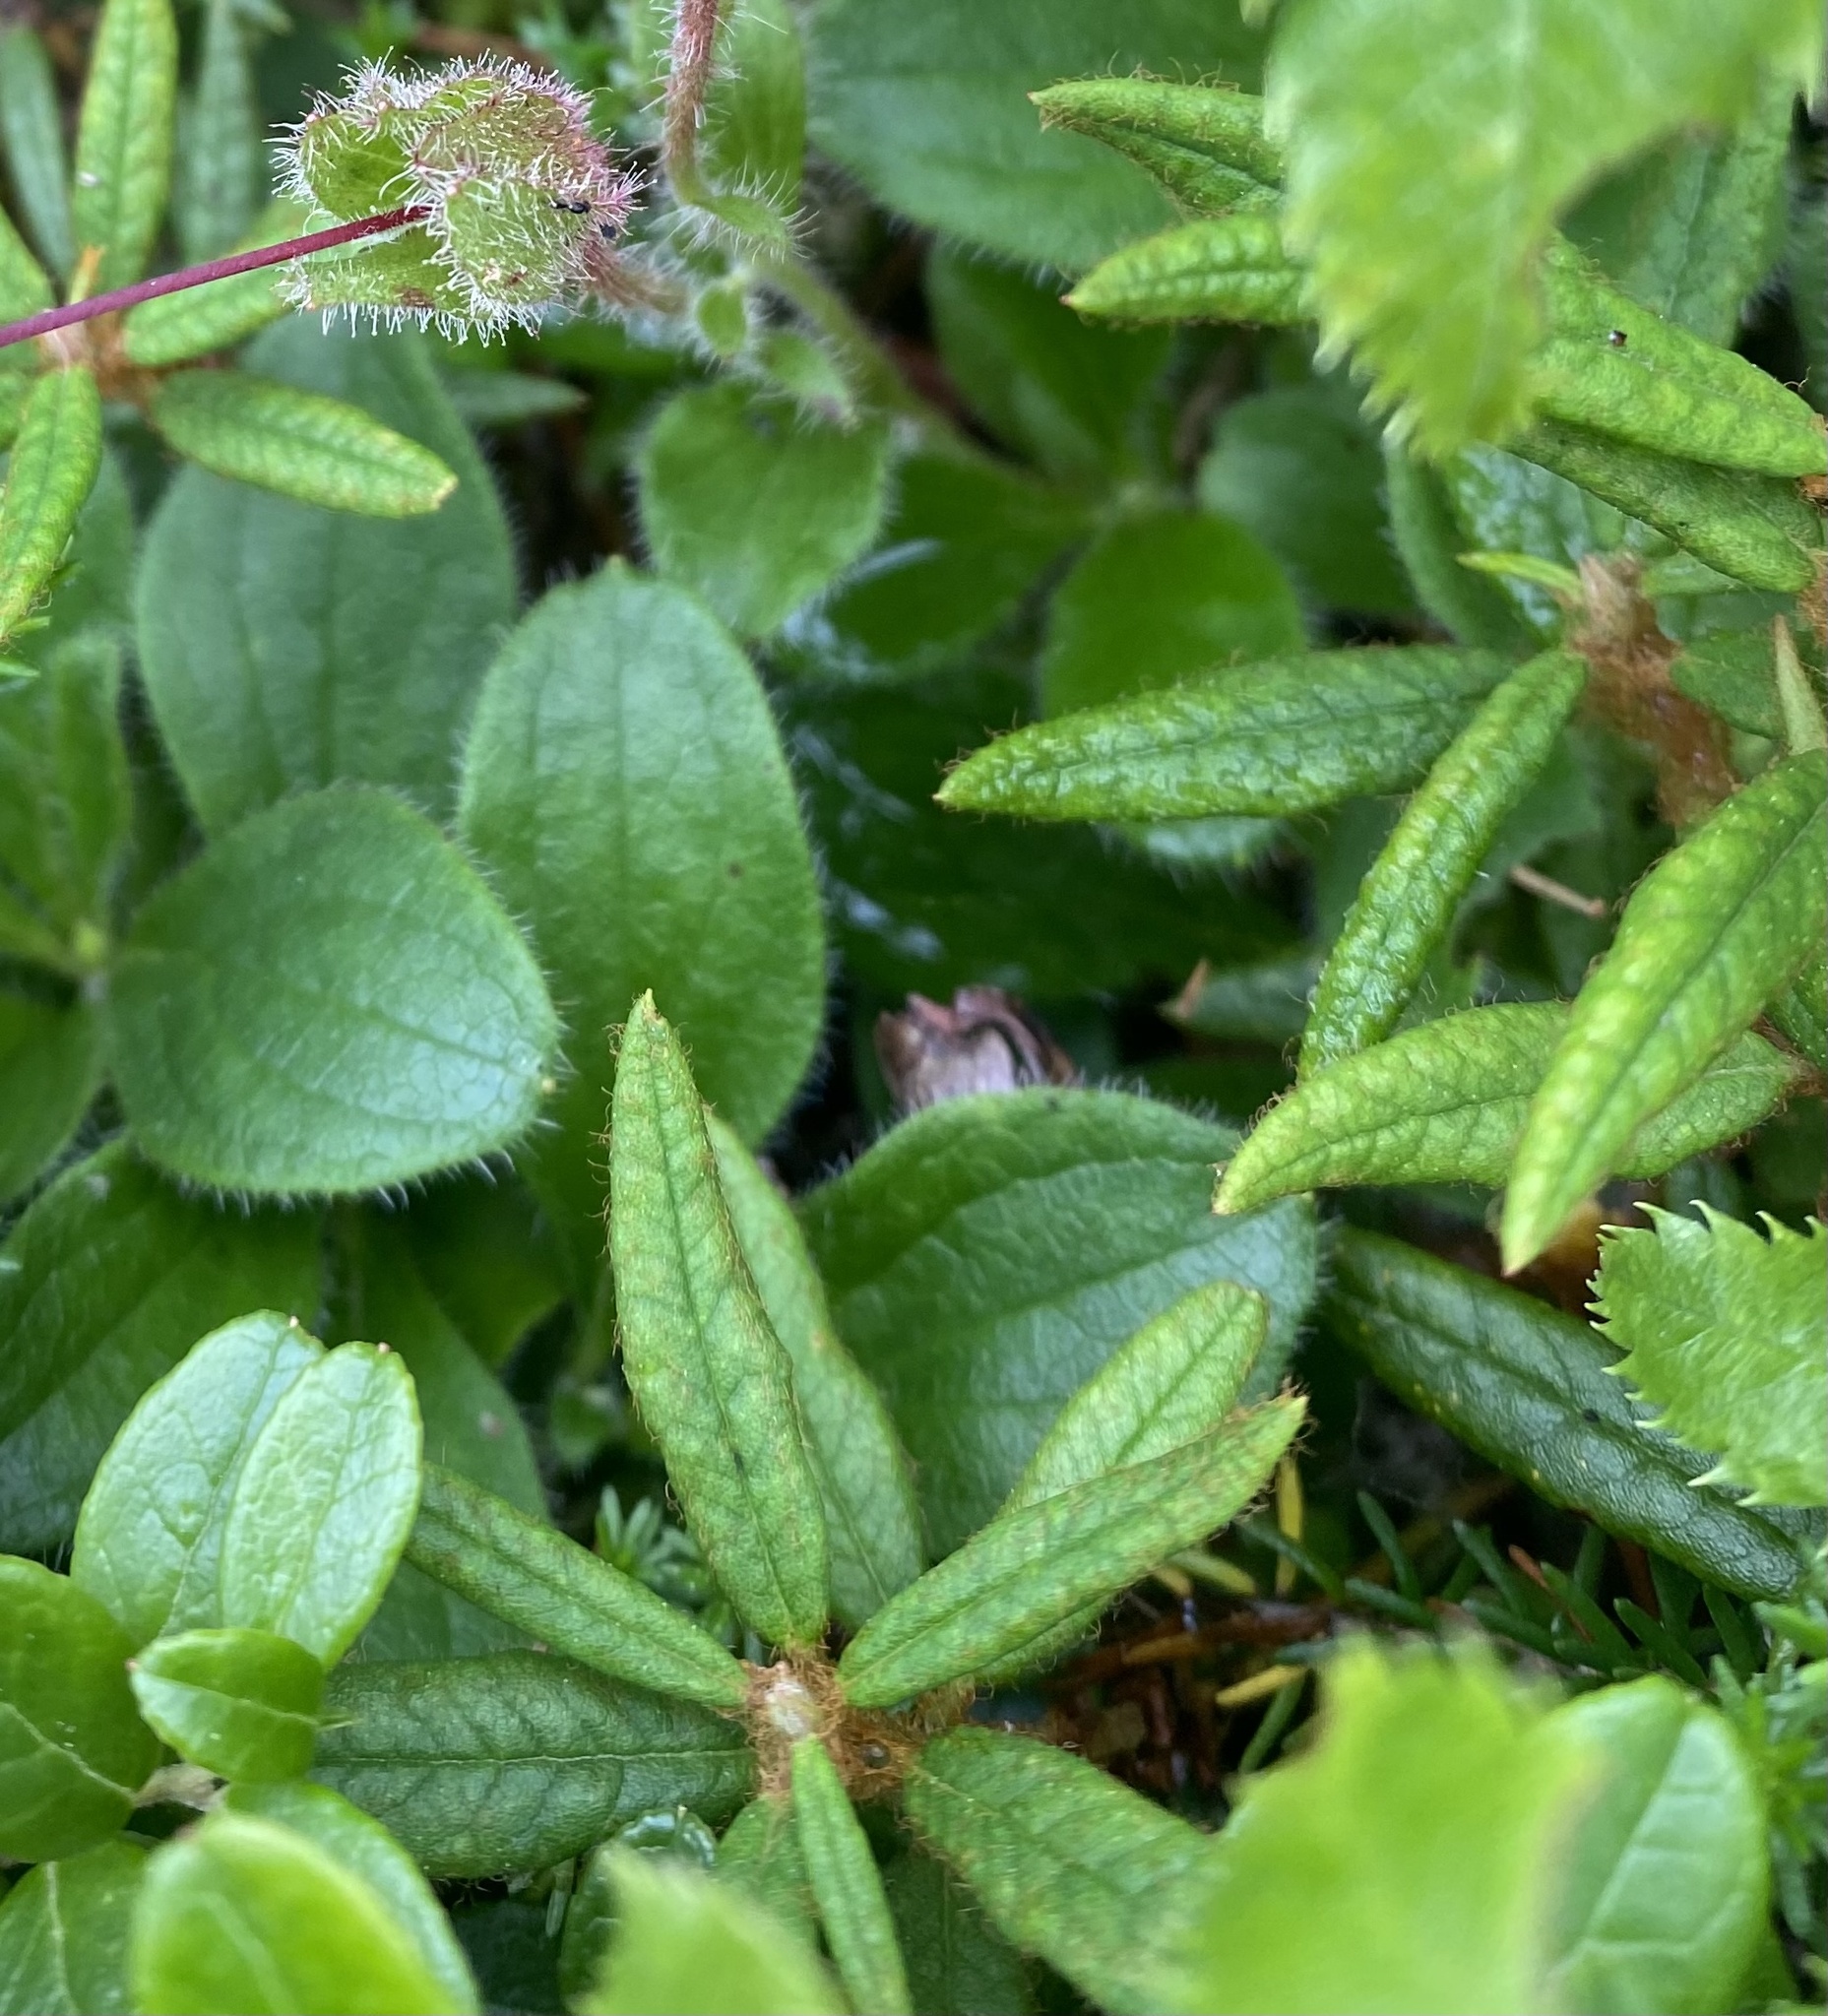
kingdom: Plantae
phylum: Tracheophyta
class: Magnoliopsida
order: Ericales
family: Ericaceae
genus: Rhododendron
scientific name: Rhododendron tomentosum
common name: Marsh labrador tea
